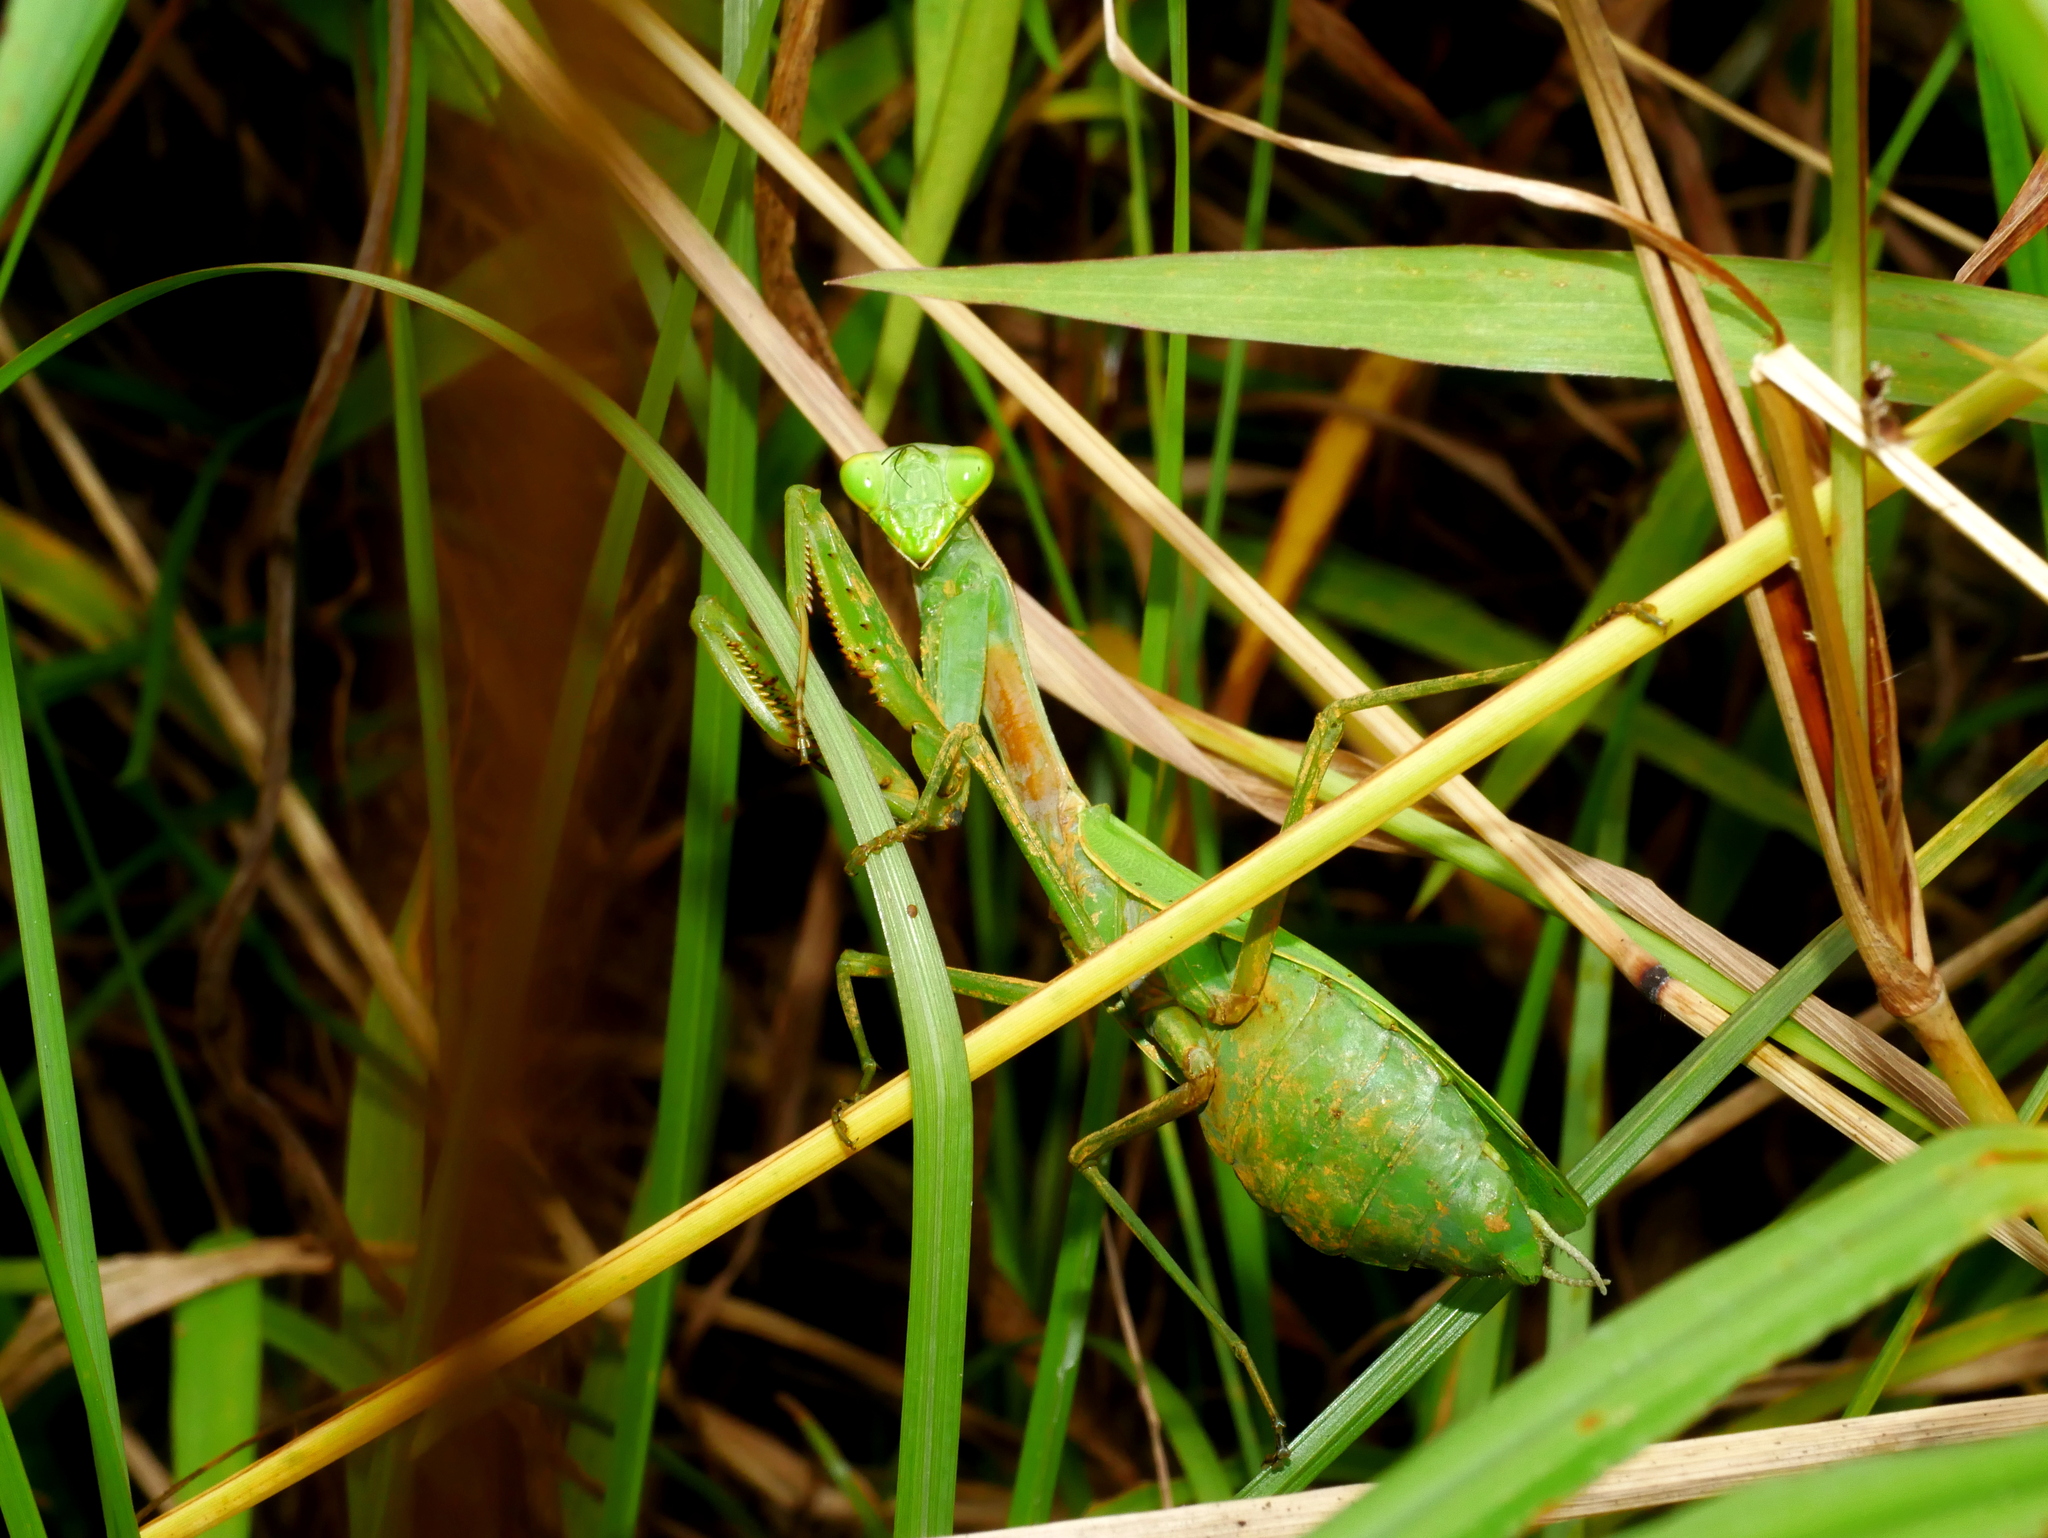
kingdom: Animalia
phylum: Arthropoda
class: Insecta
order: Mantodea
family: Mantidae
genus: Titanodula
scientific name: Titanodula formosana
